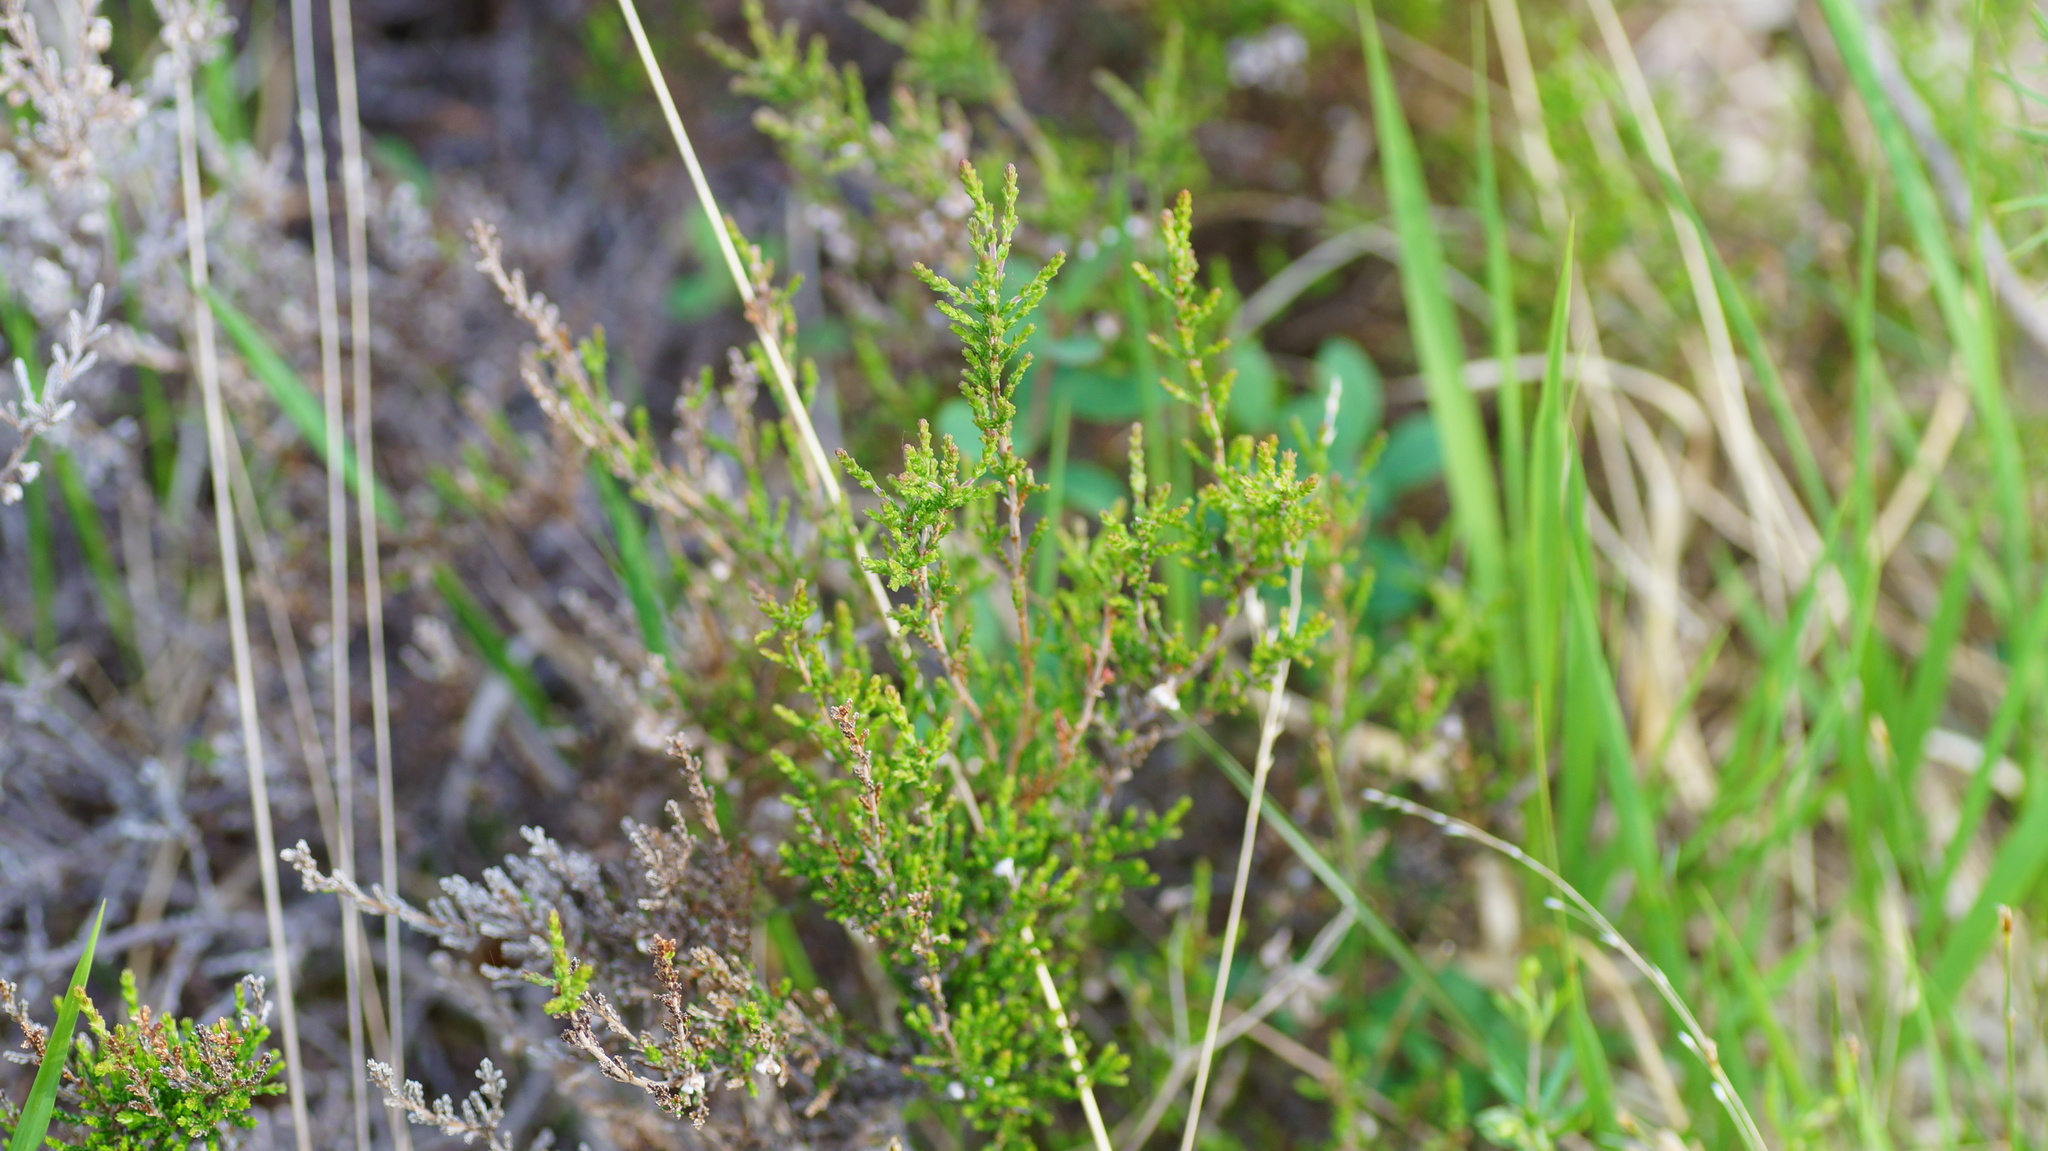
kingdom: Plantae
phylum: Tracheophyta
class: Magnoliopsida
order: Ericales
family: Ericaceae
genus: Calluna
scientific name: Calluna vulgaris
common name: Heather
